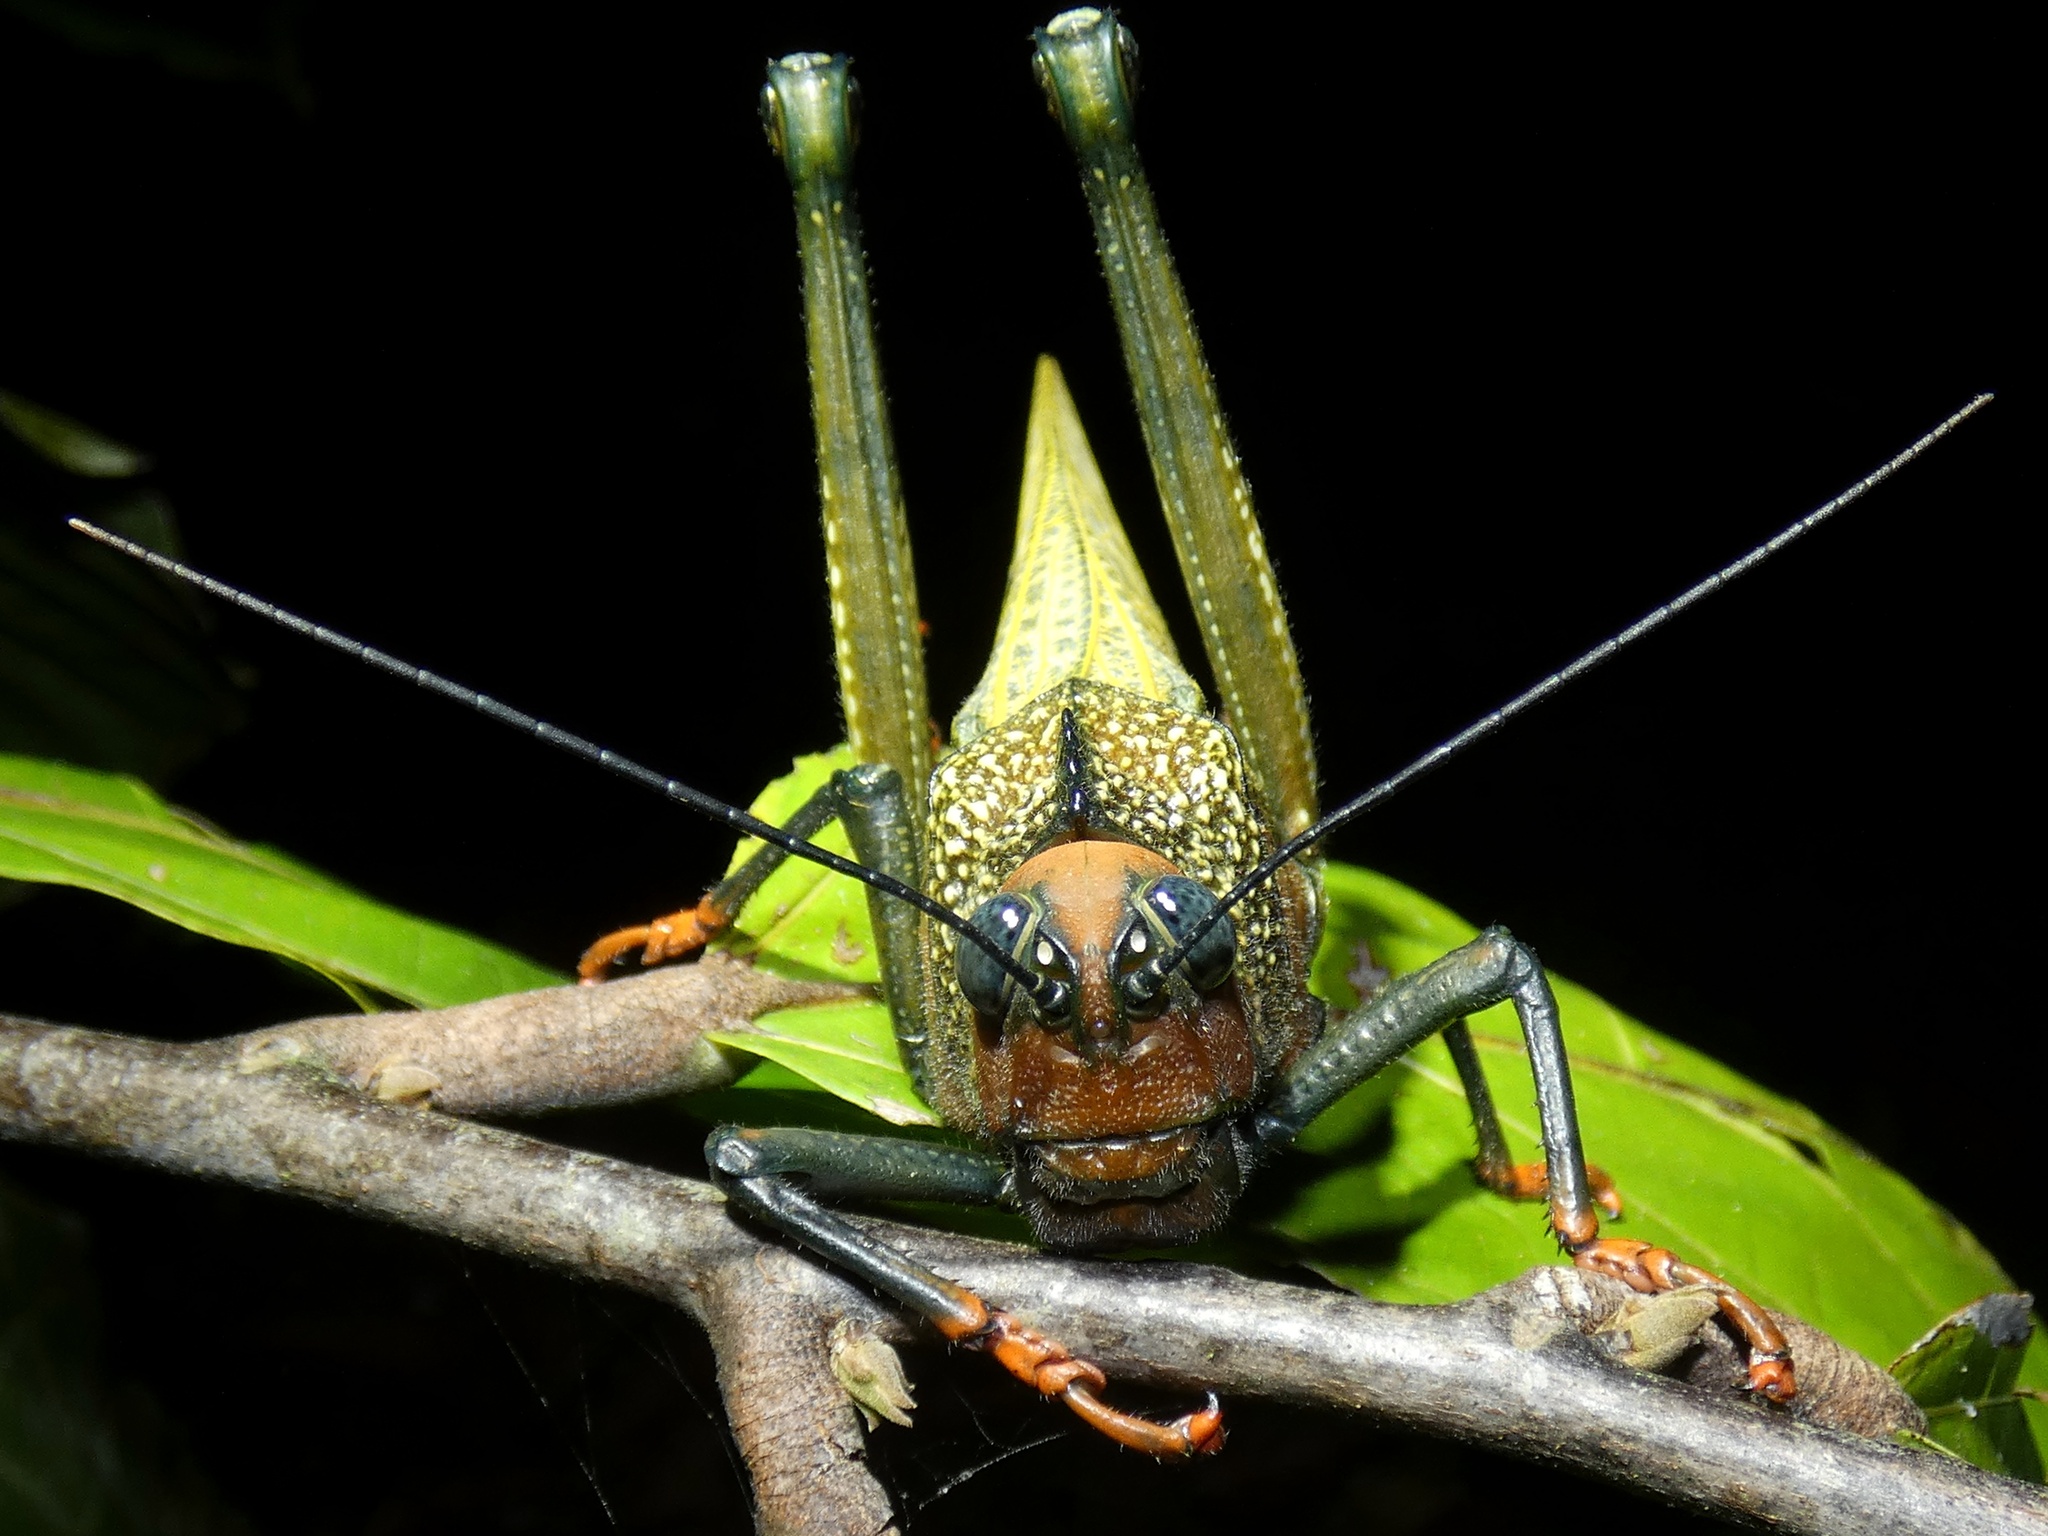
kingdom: Animalia
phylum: Arthropoda
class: Insecta
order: Orthoptera
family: Romaleidae
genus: Tropidacris
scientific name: Tropidacris cristata
